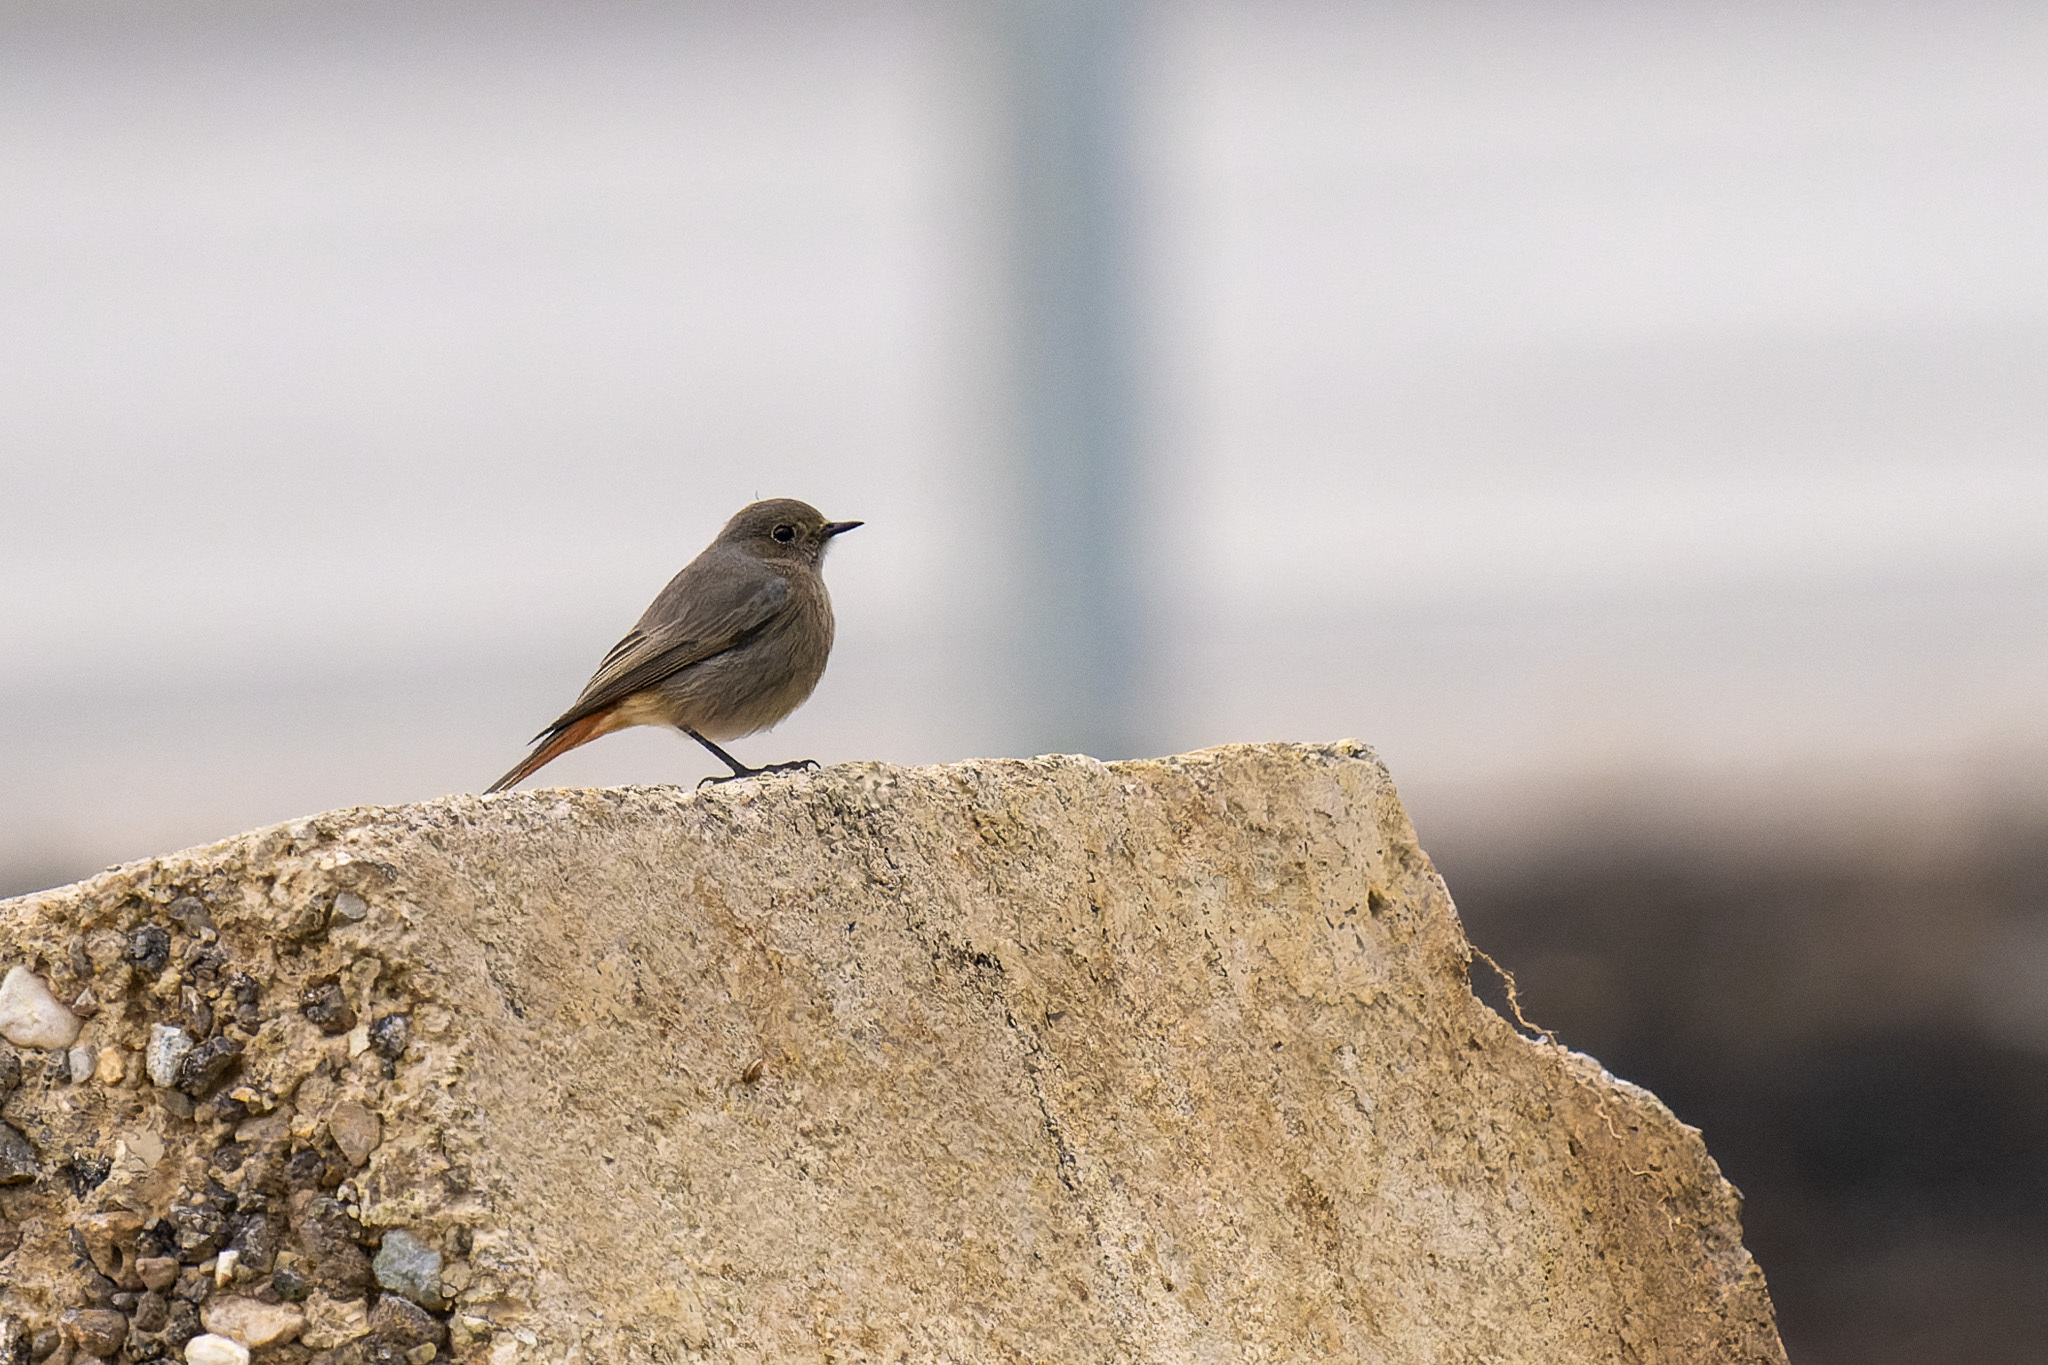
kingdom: Animalia
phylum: Chordata
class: Aves
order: Passeriformes
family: Muscicapidae
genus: Phoenicurus
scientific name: Phoenicurus ochruros
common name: Black redstart
